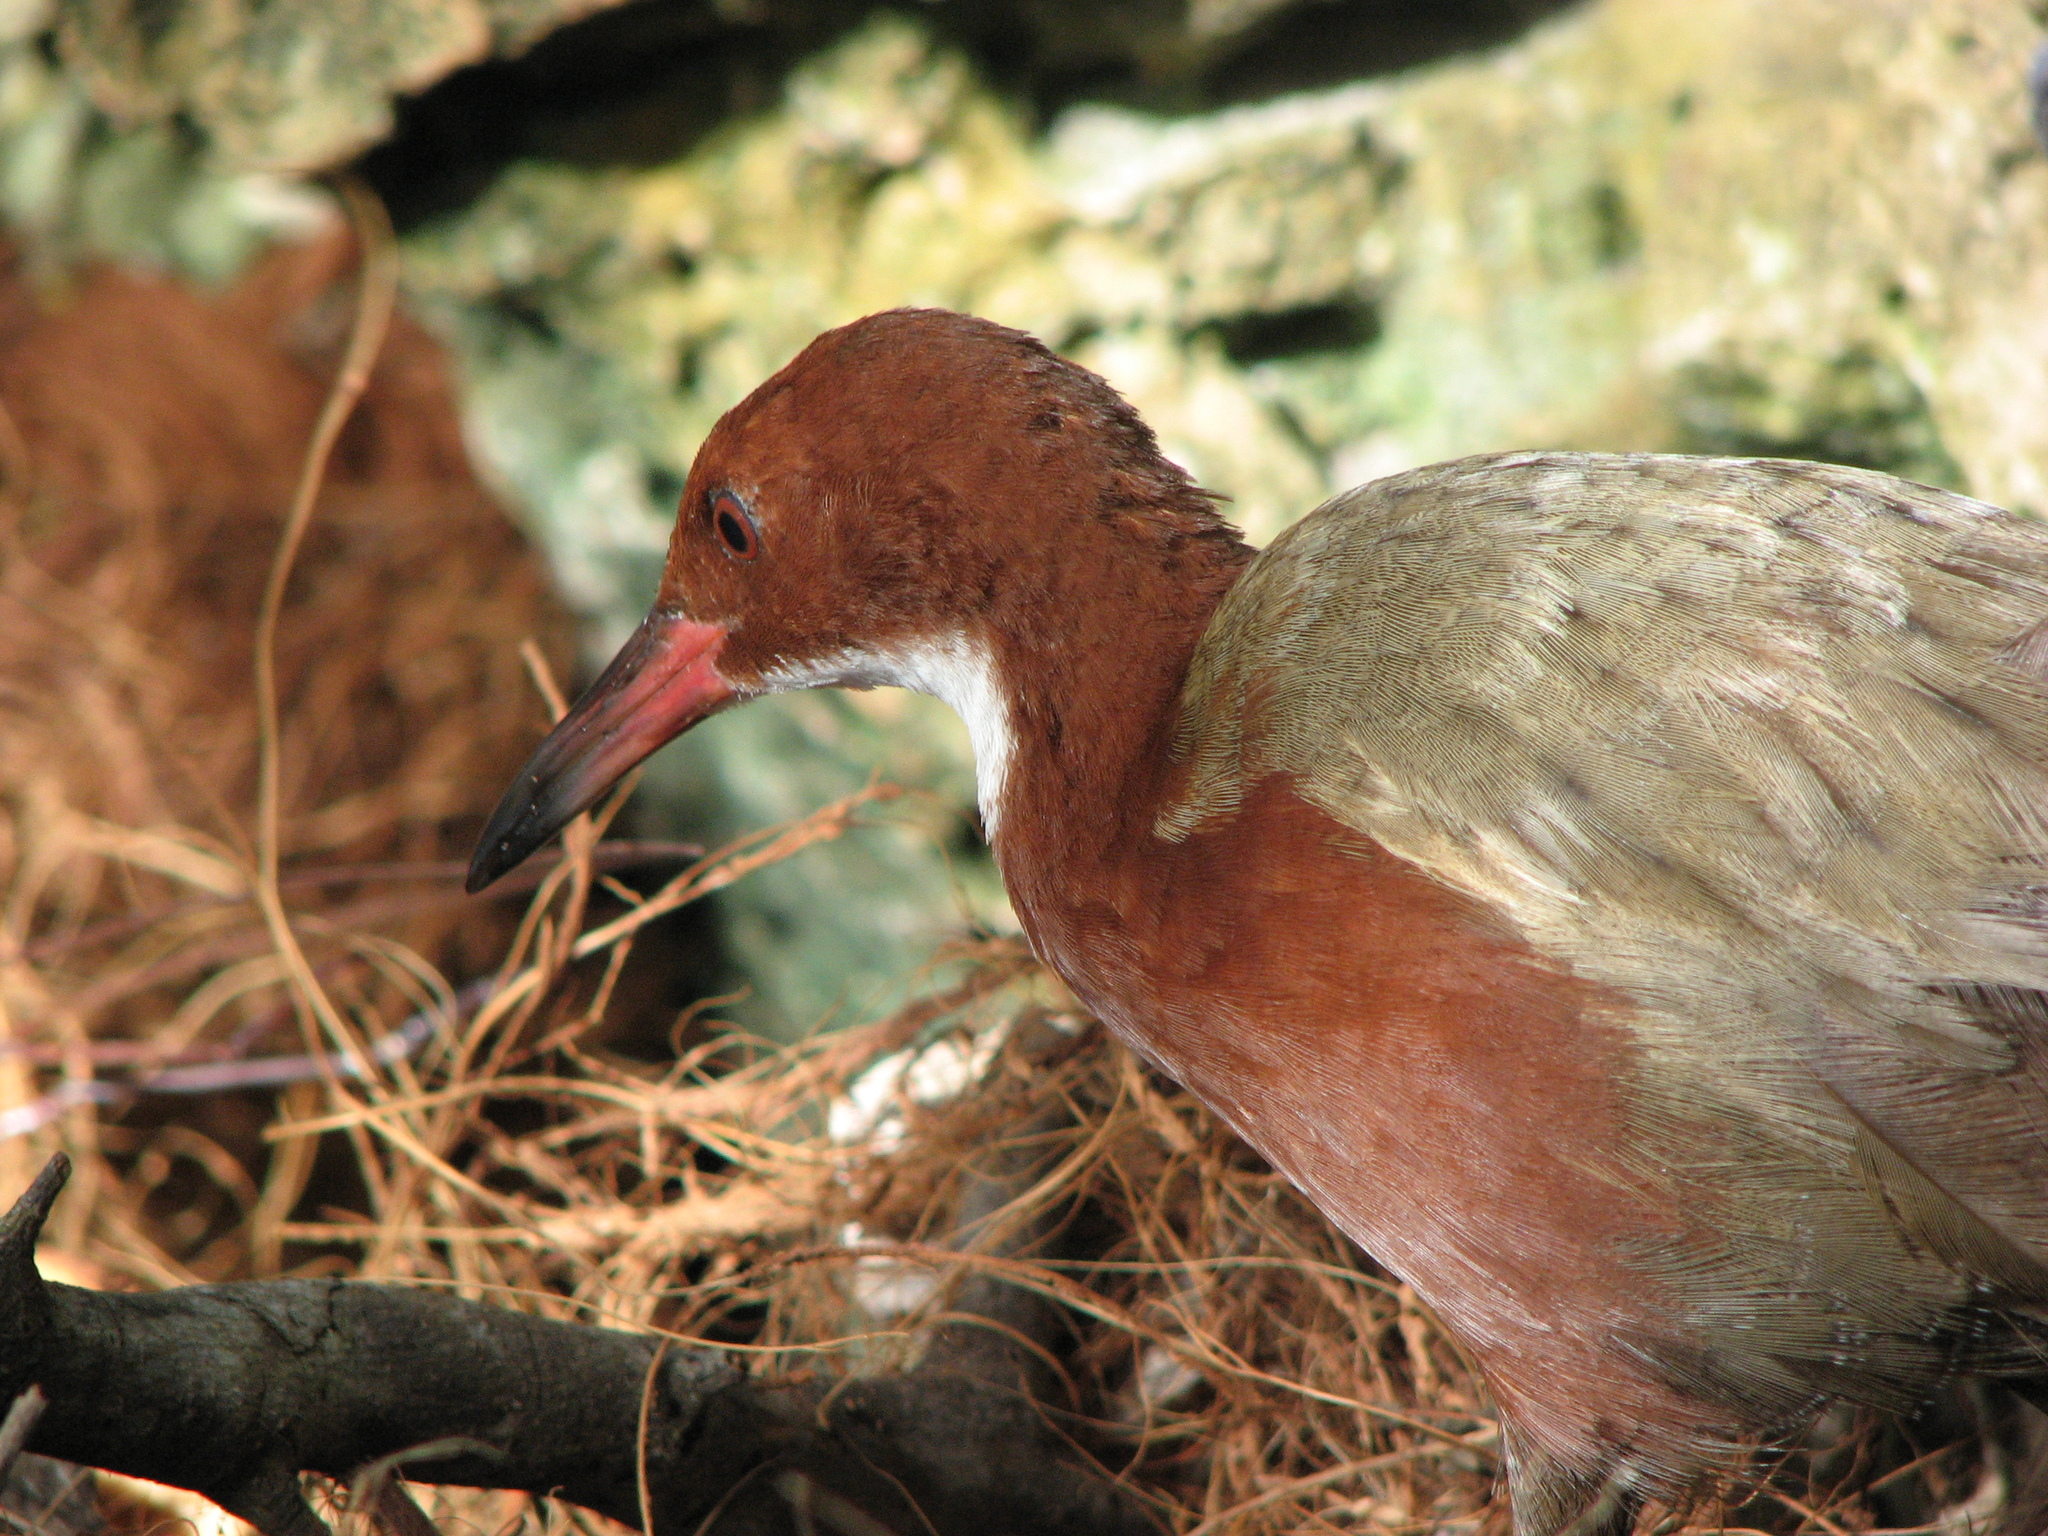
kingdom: Animalia
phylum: Chordata
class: Aves
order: Gruiformes
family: Rallidae
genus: Dryolimnas
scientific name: Dryolimnas cuvieri
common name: White-throated rail
